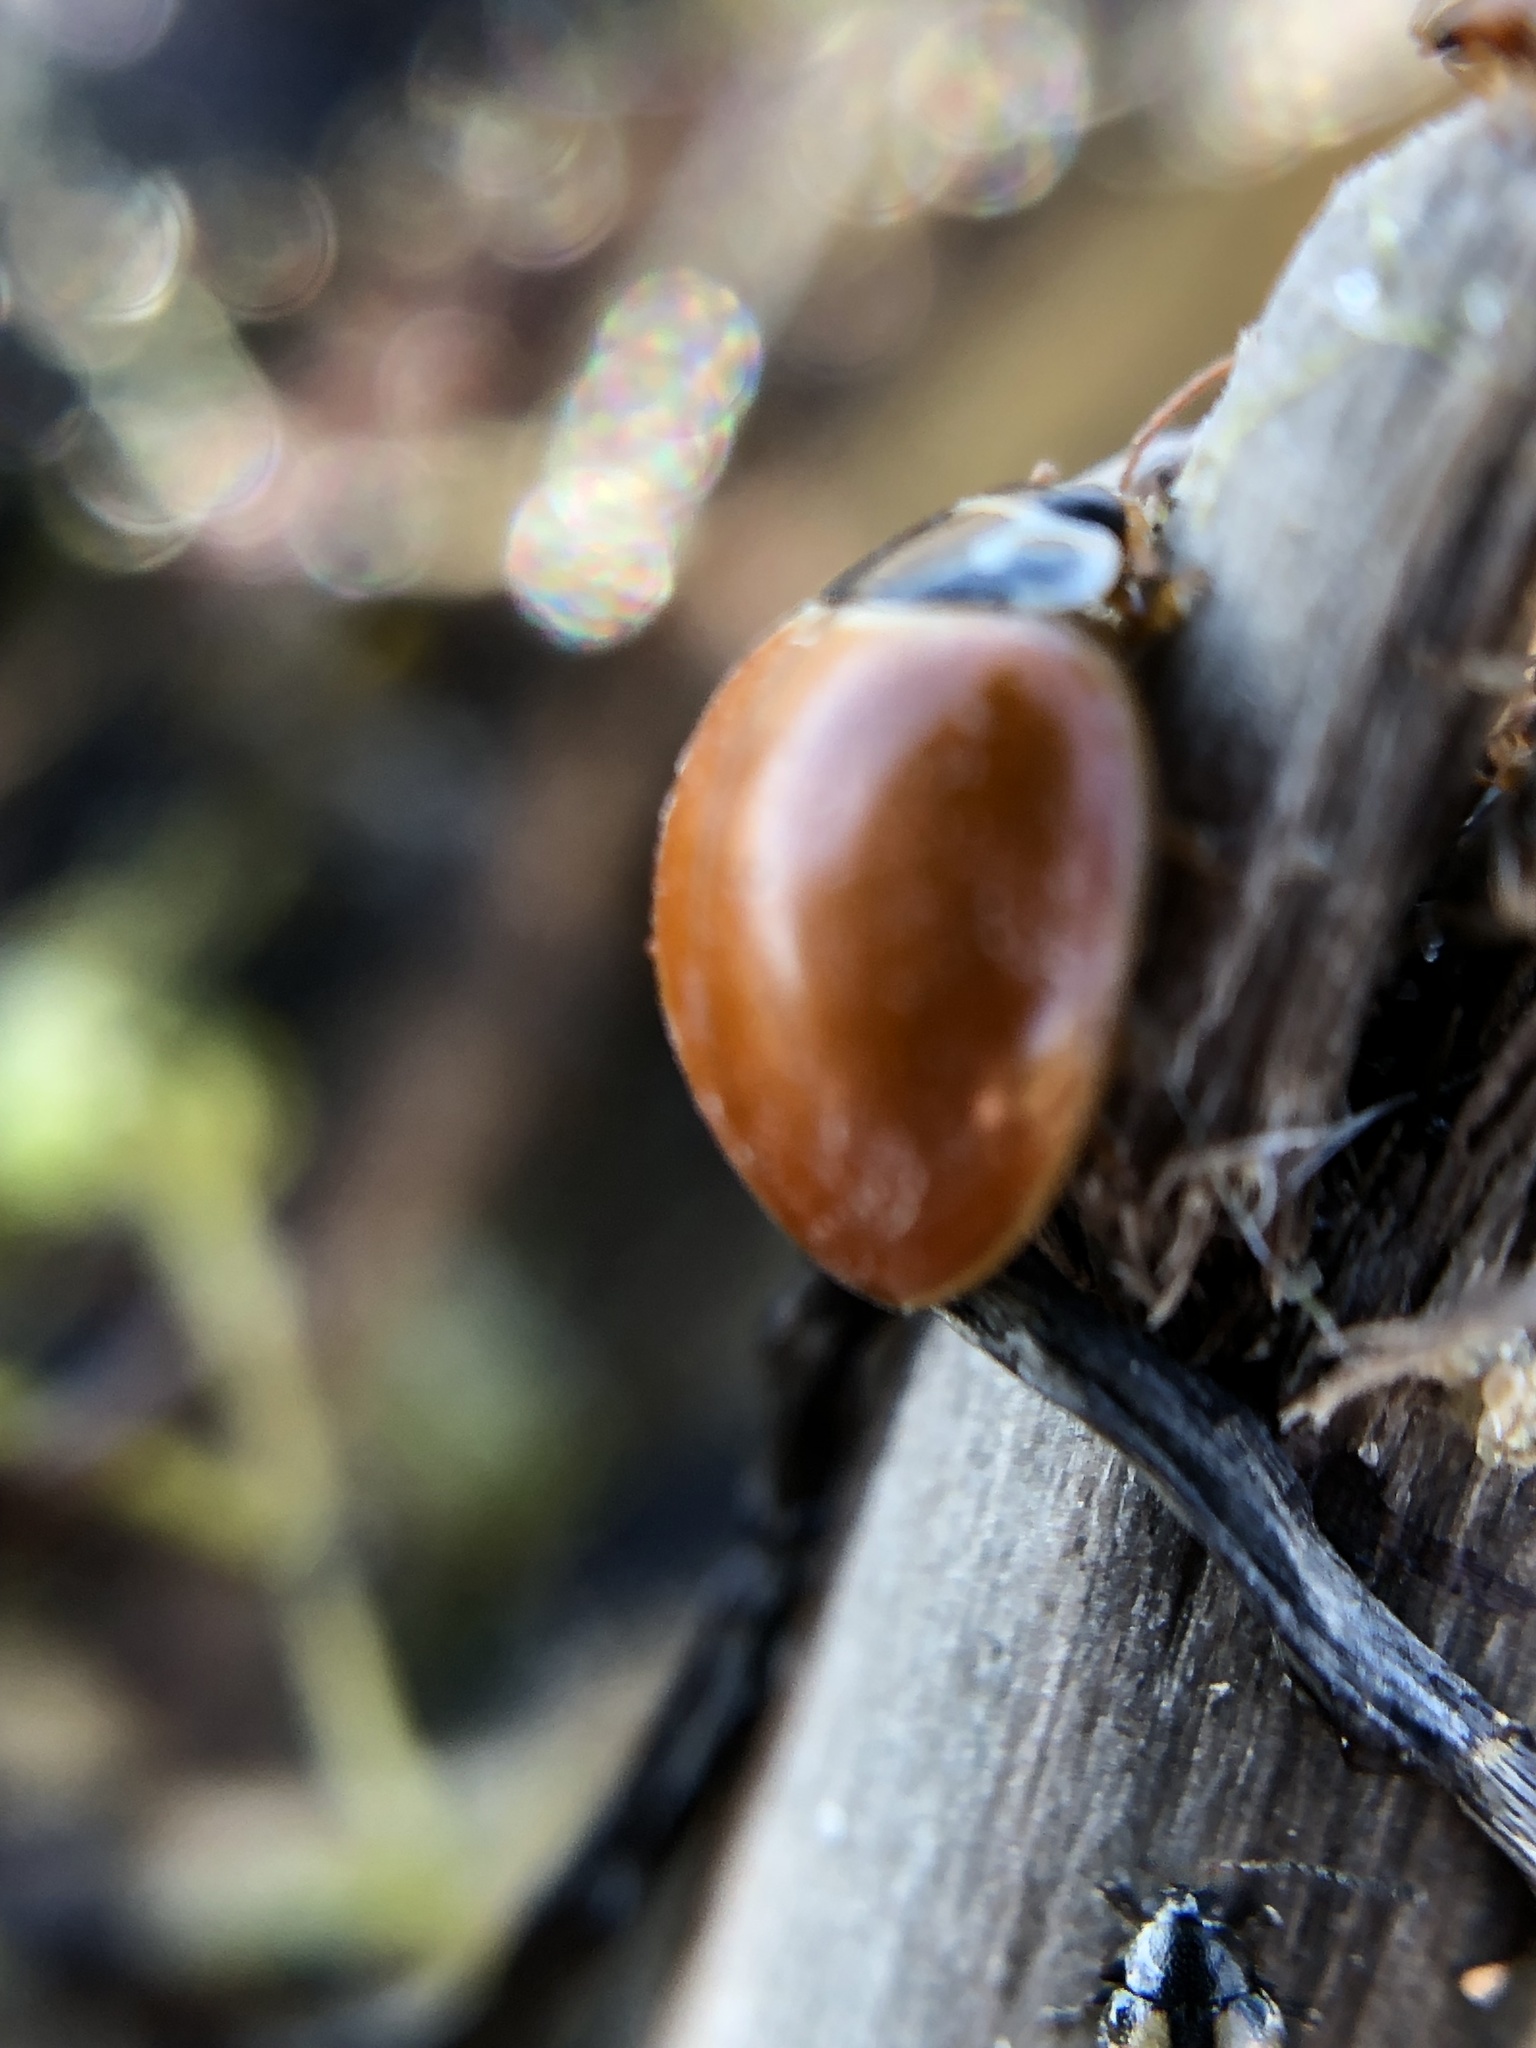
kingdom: Animalia
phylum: Arthropoda
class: Insecta
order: Coleoptera
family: Coccinellidae
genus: Cycloneda
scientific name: Cycloneda munda
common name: Polished lady beetle
